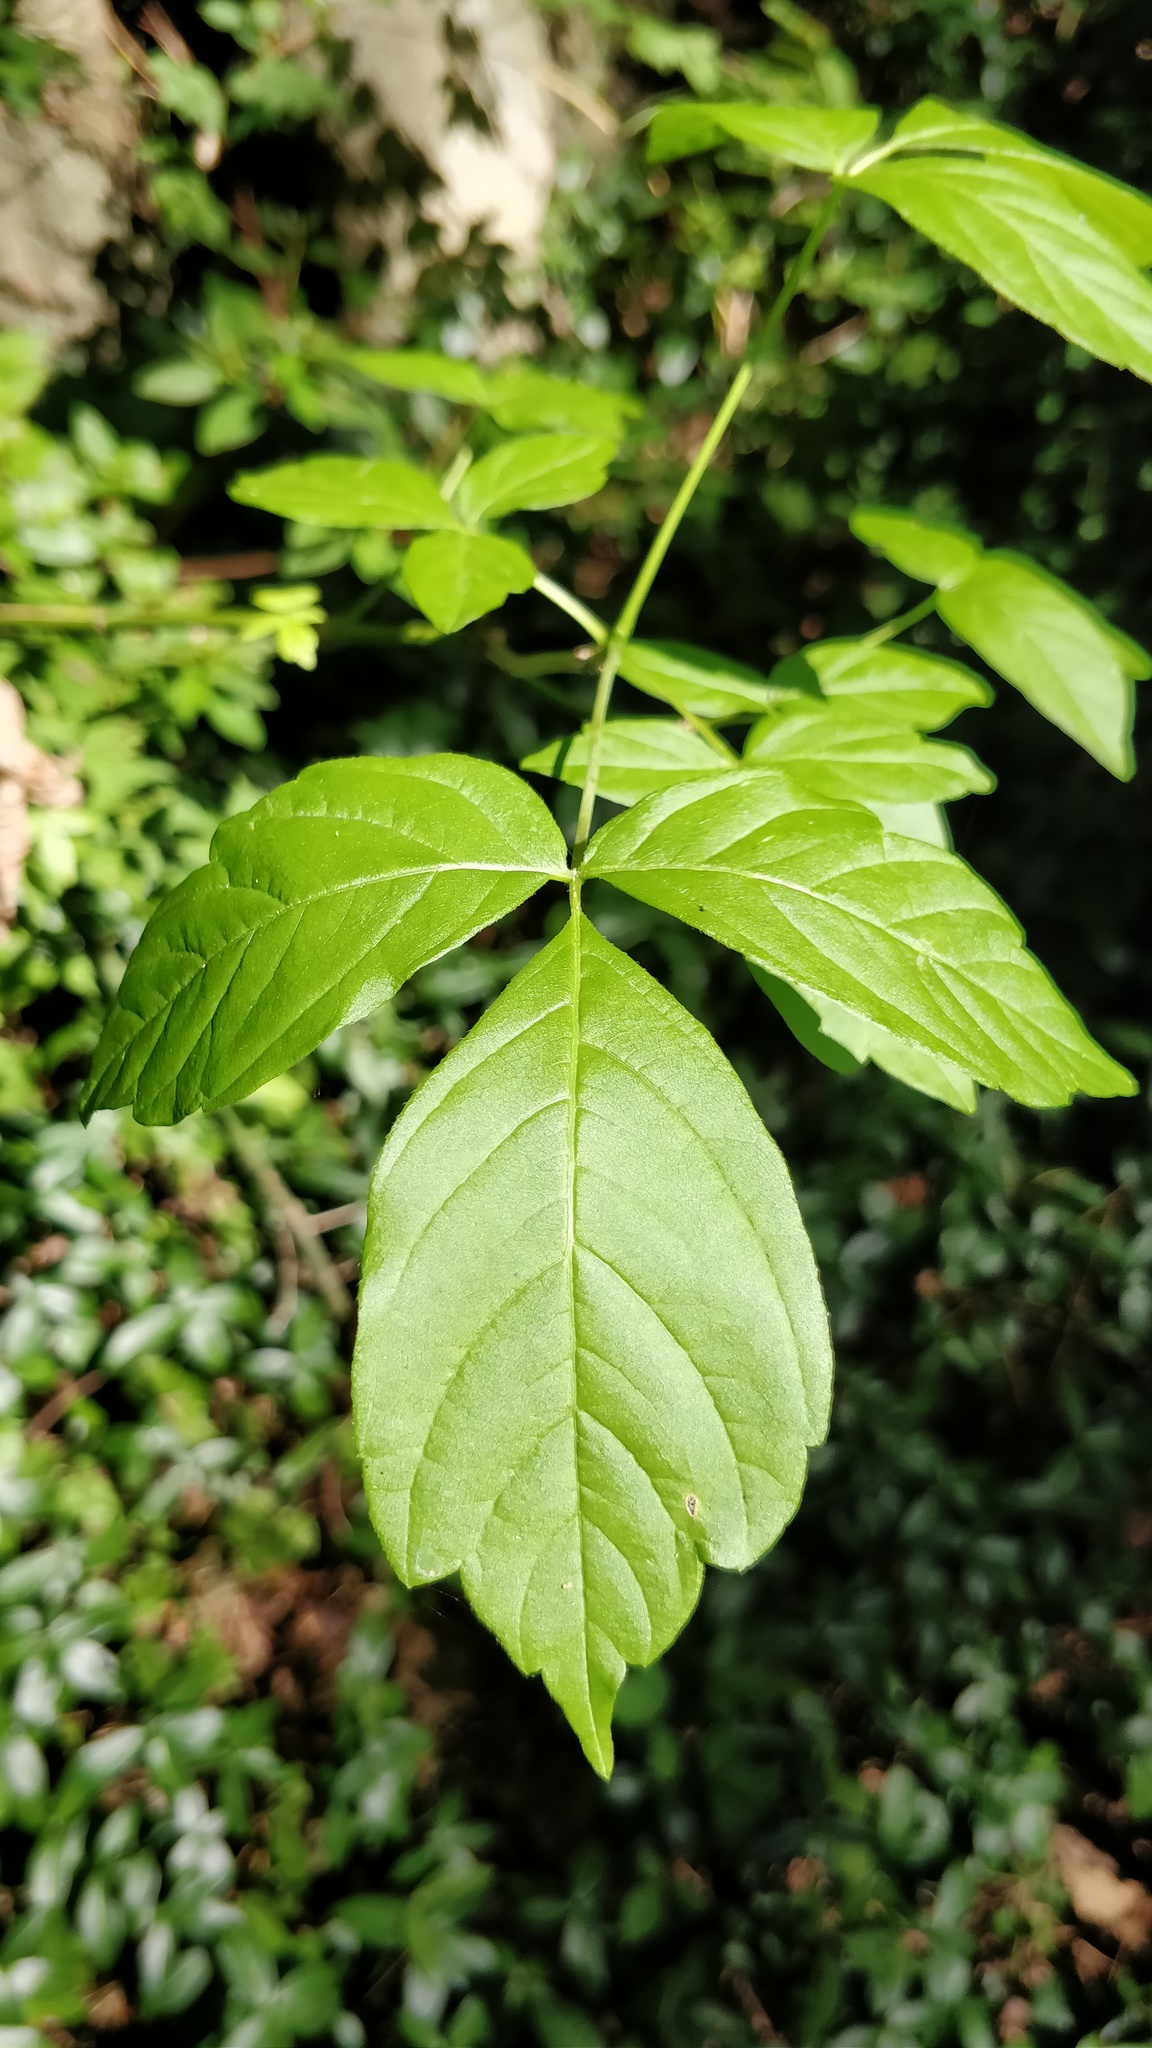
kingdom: Plantae
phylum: Tracheophyta
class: Magnoliopsida
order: Sapindales
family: Sapindaceae
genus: Acer
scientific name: Acer negundo
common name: Ashleaf maple
